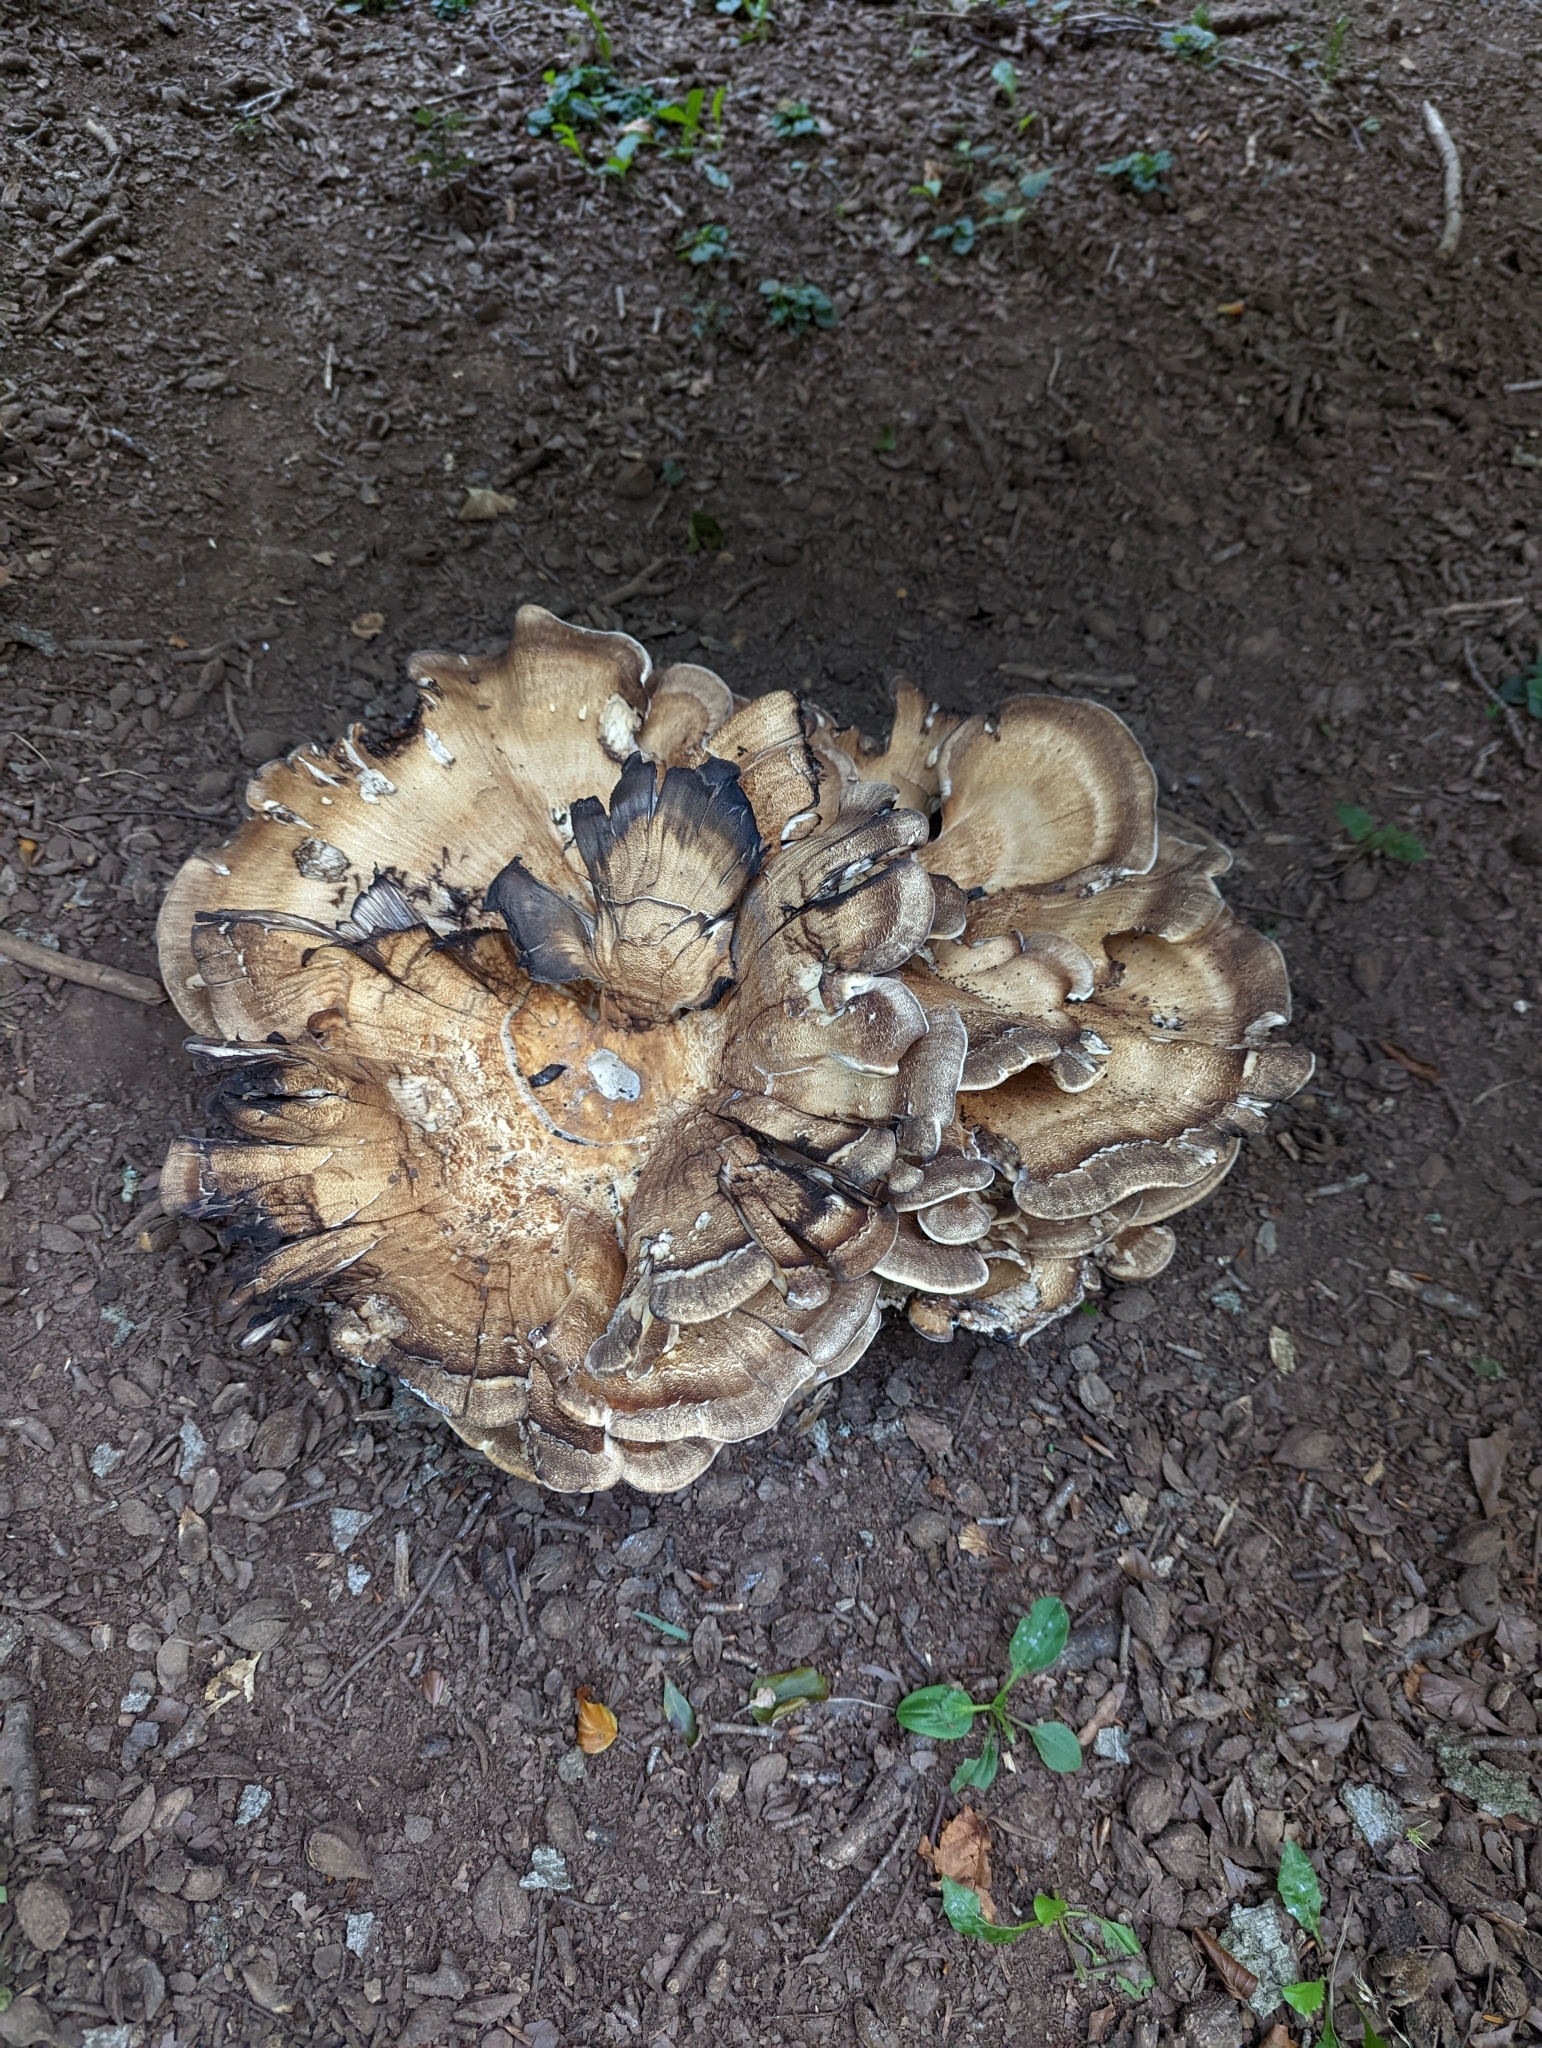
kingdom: Fungi
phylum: Basidiomycota
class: Agaricomycetes
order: Polyporales
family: Meripilaceae
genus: Meripilus
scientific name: Meripilus giganteus
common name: Giant polypore
